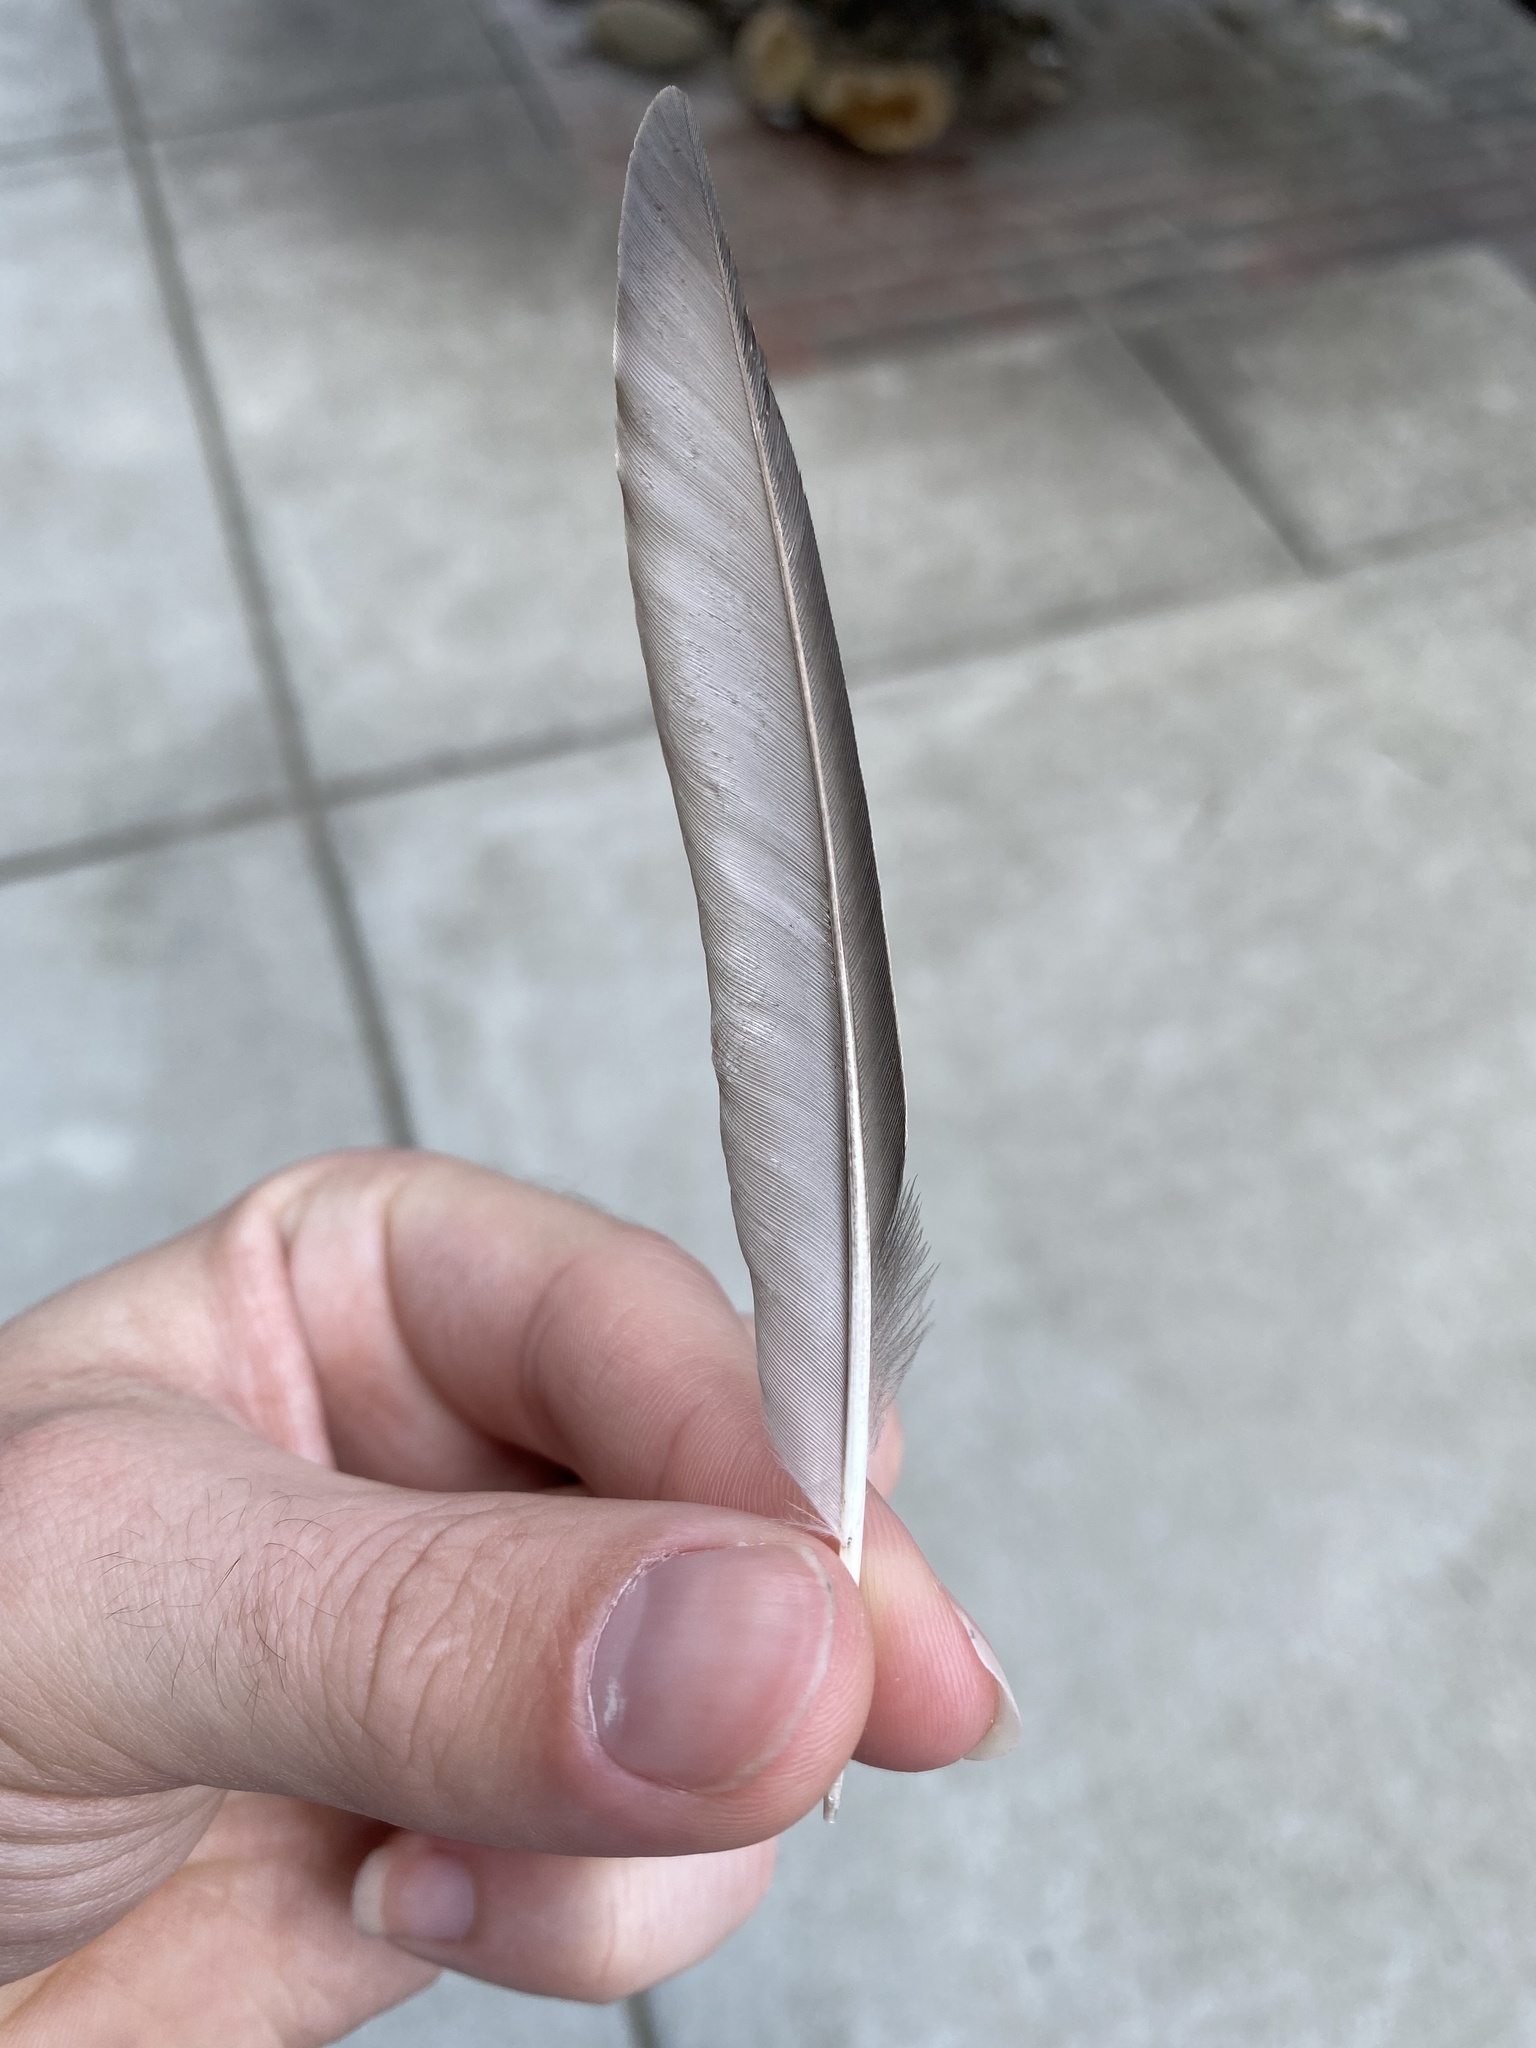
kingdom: Animalia
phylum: Chordata
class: Aves
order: Passeriformes
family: Sturnidae
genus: Sturnus
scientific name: Sturnus vulgaris
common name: Common starling
